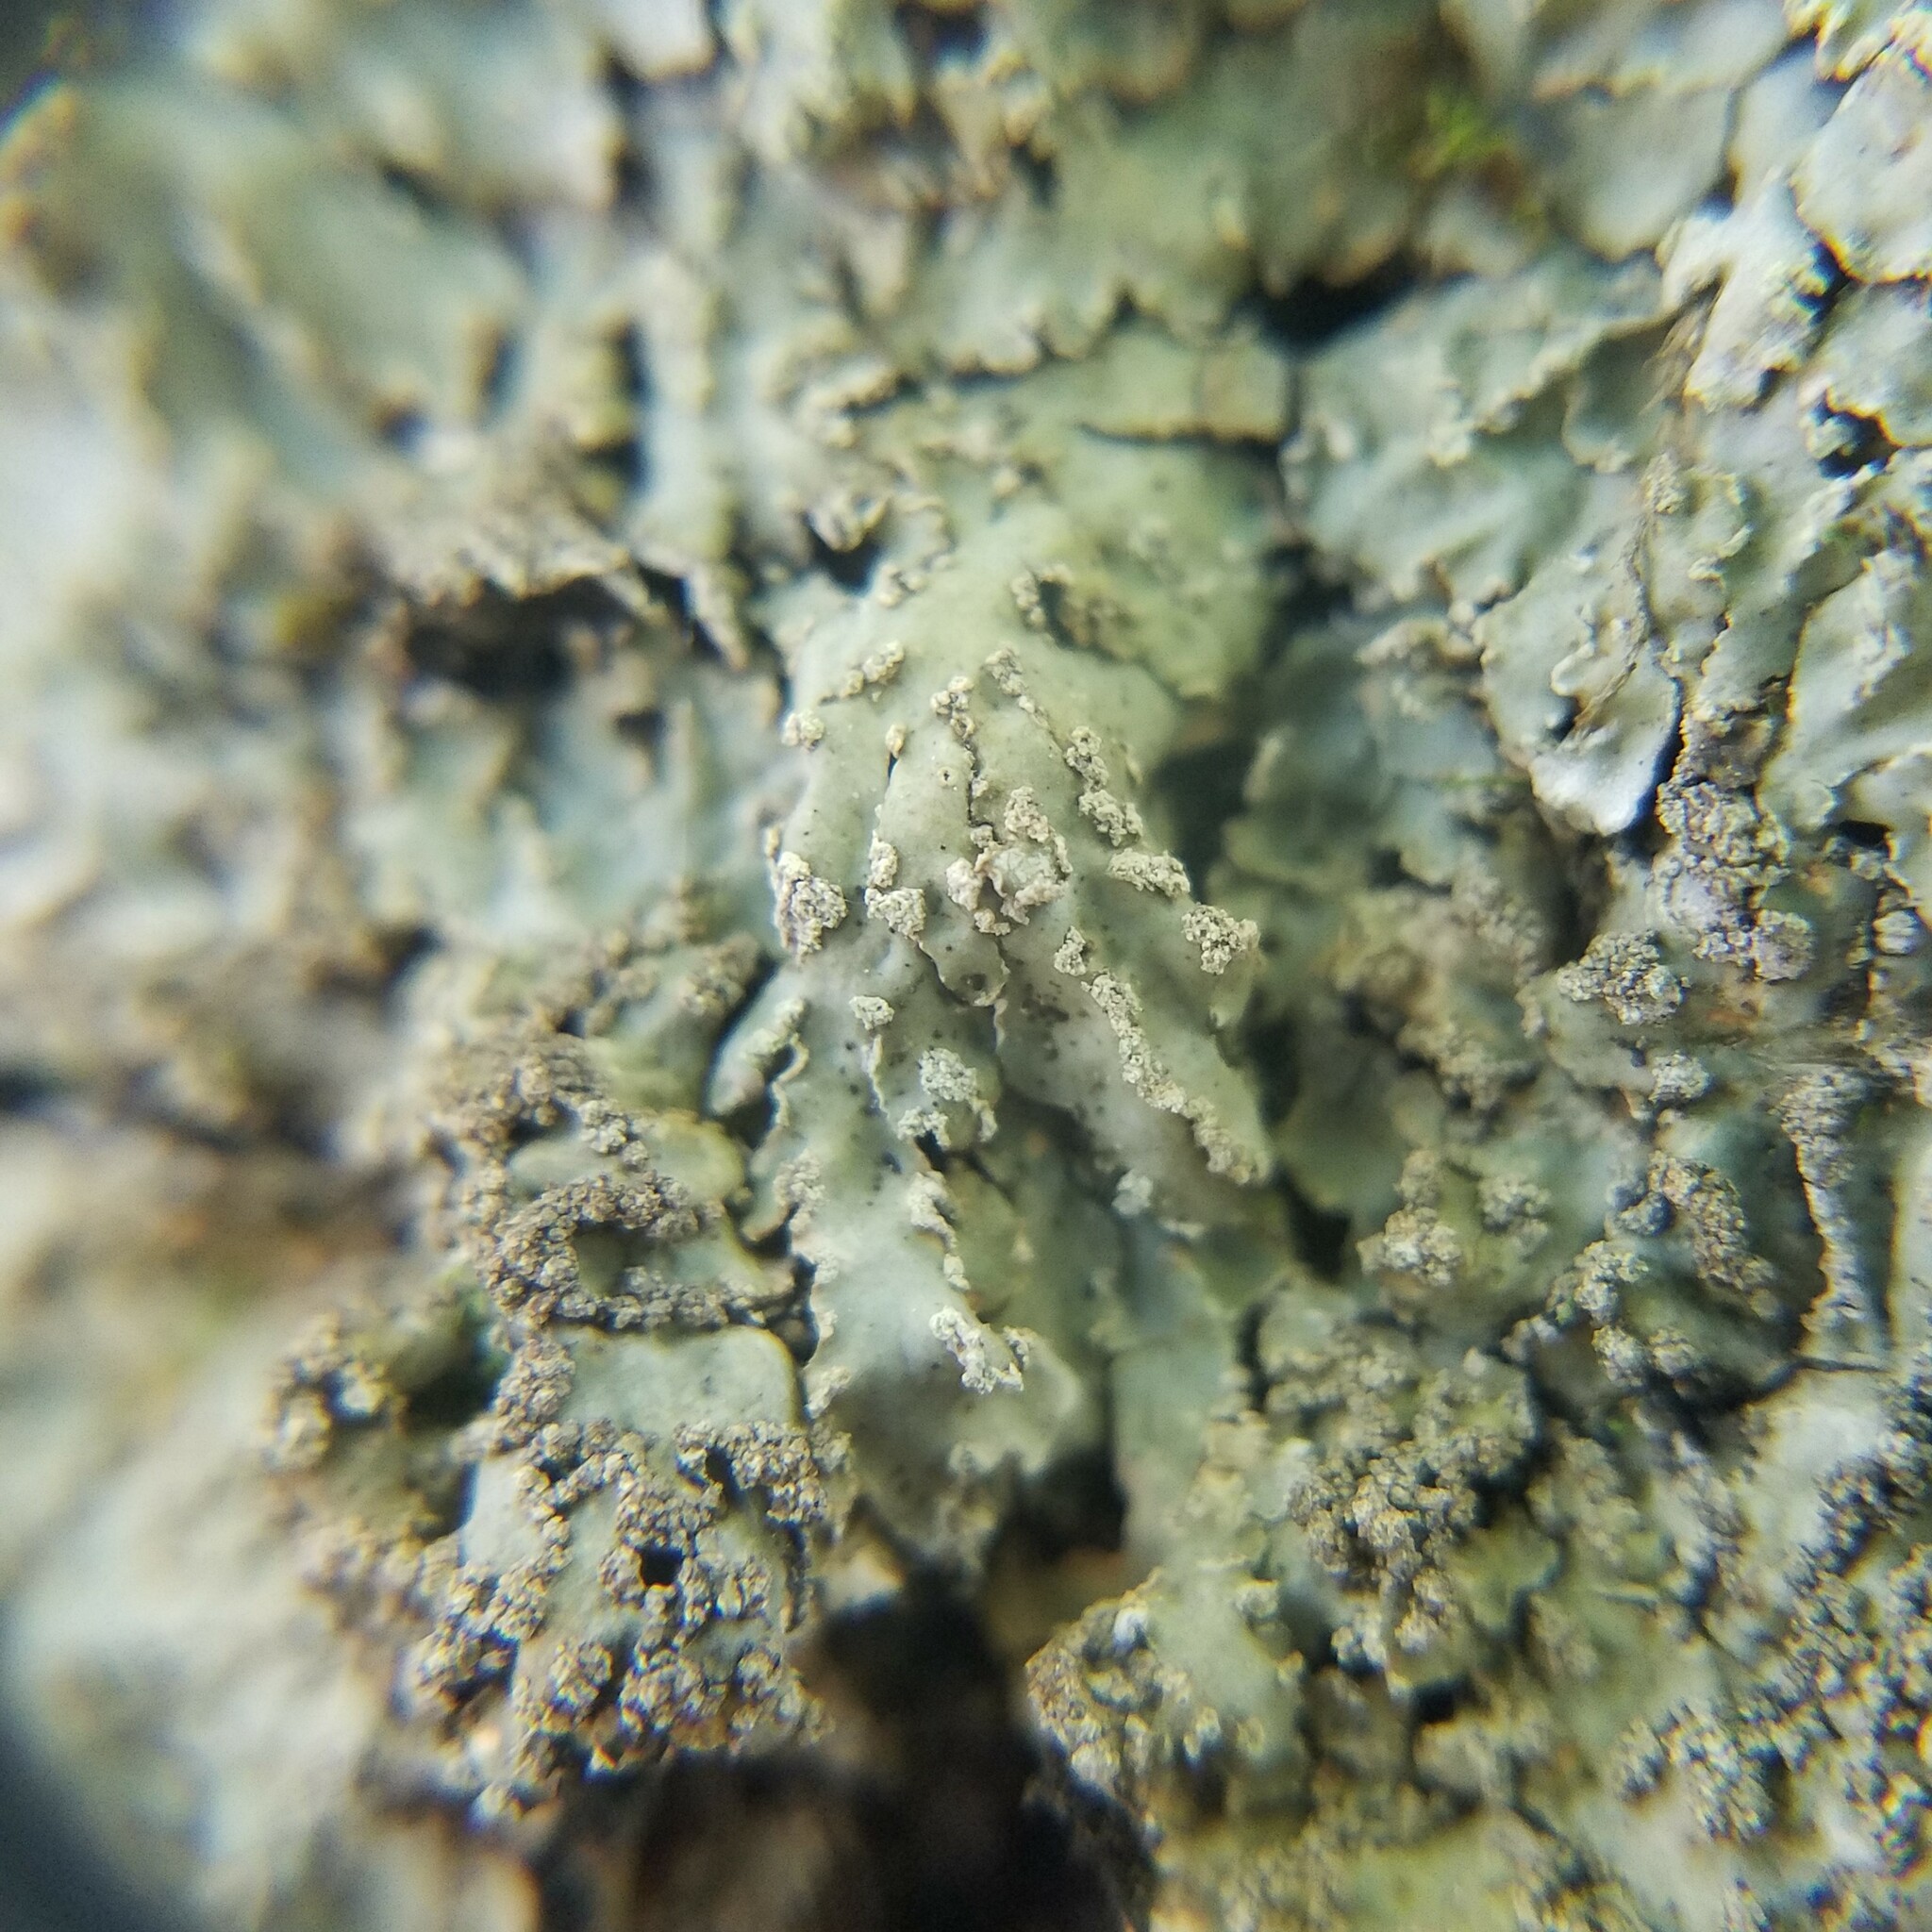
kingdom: Fungi
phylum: Ascomycota
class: Lecanoromycetes
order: Caliciales
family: Caliciaceae
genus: Pyxine
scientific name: Pyxine sorediata
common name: Mustard lichen
